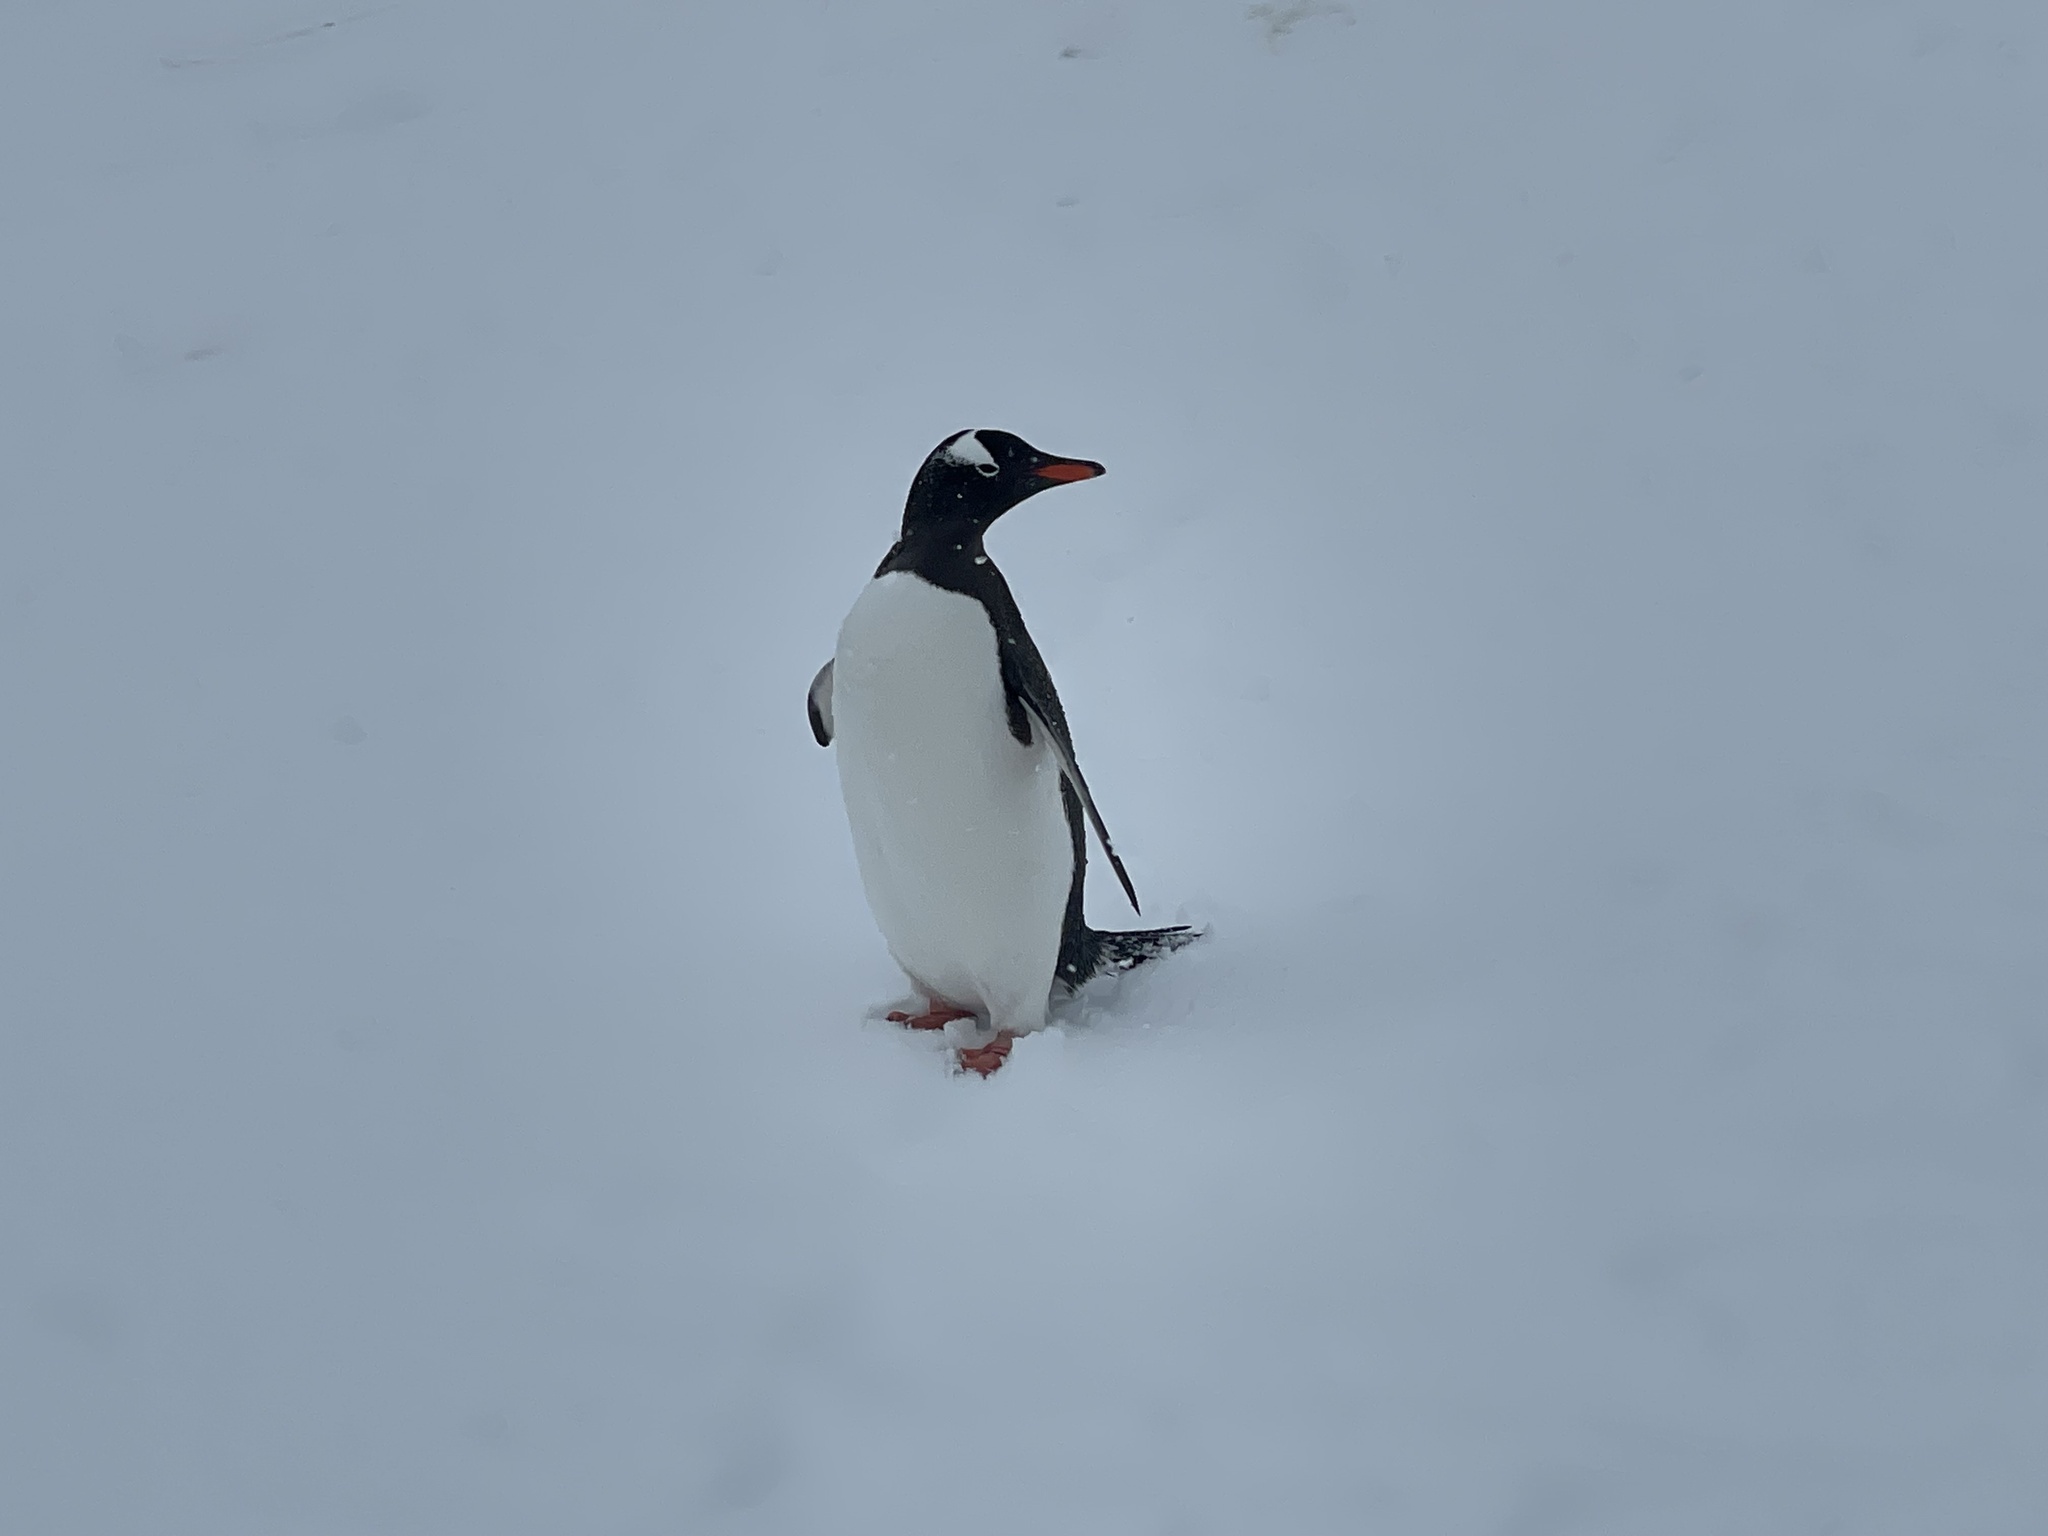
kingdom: Animalia
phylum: Chordata
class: Aves
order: Sphenisciformes
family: Spheniscidae
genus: Pygoscelis
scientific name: Pygoscelis papua
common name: Gentoo penguin
